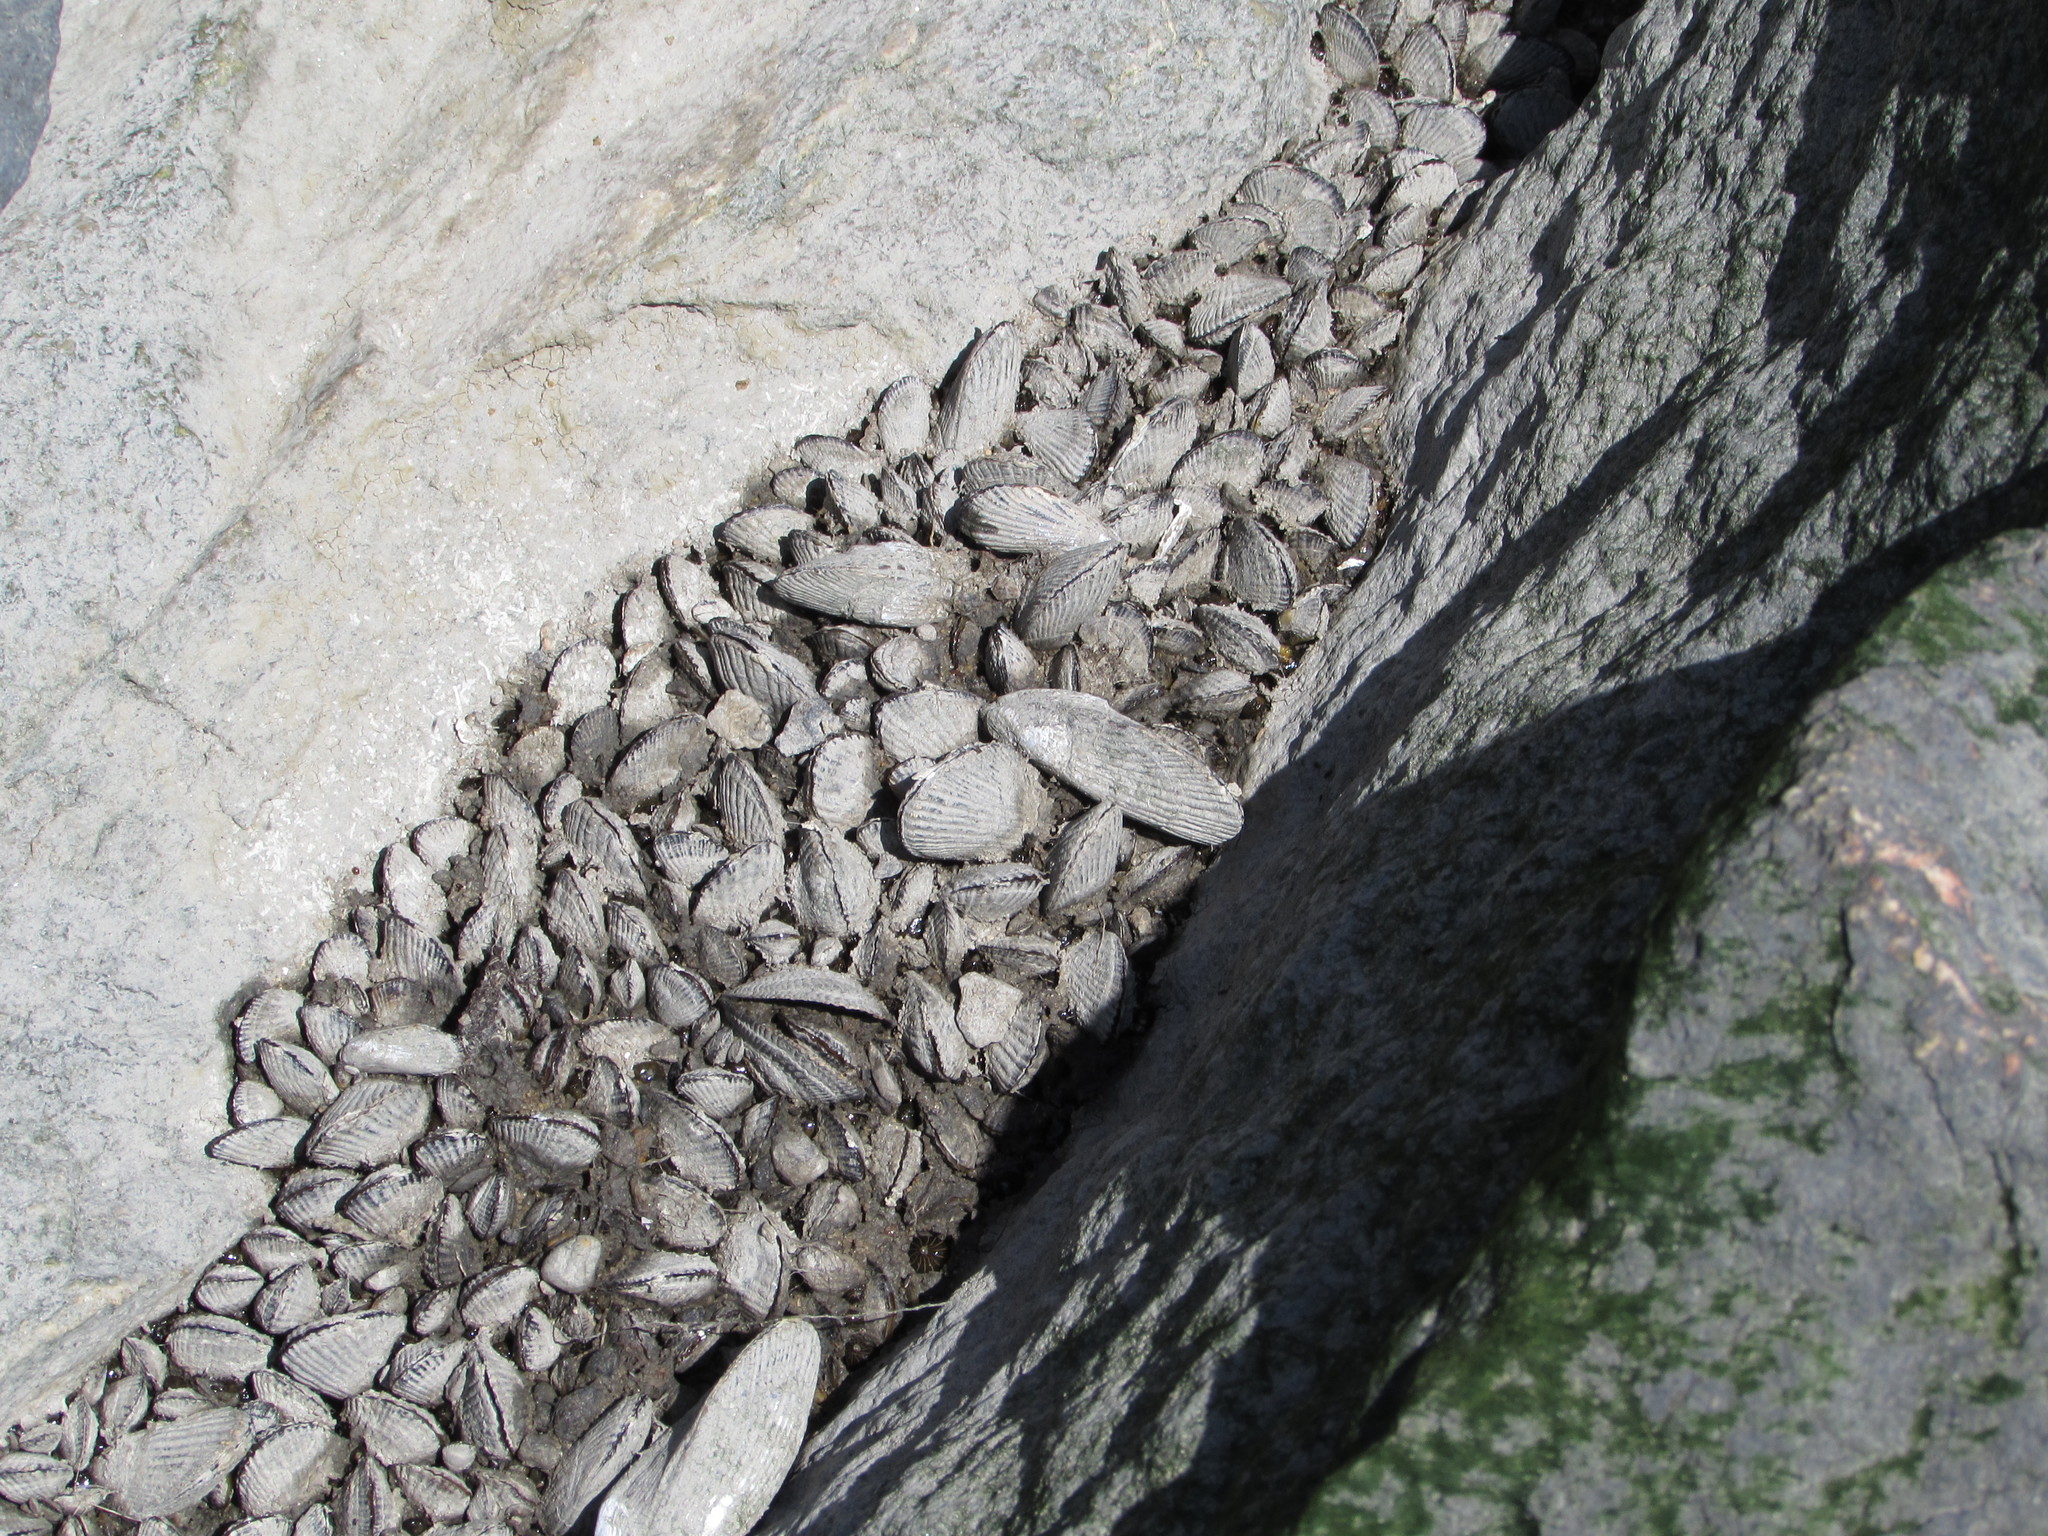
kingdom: Animalia
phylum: Mollusca
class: Bivalvia
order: Mytilida
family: Mytilidae
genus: Geukensia
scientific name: Geukensia demissa
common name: Ribbed mussel
